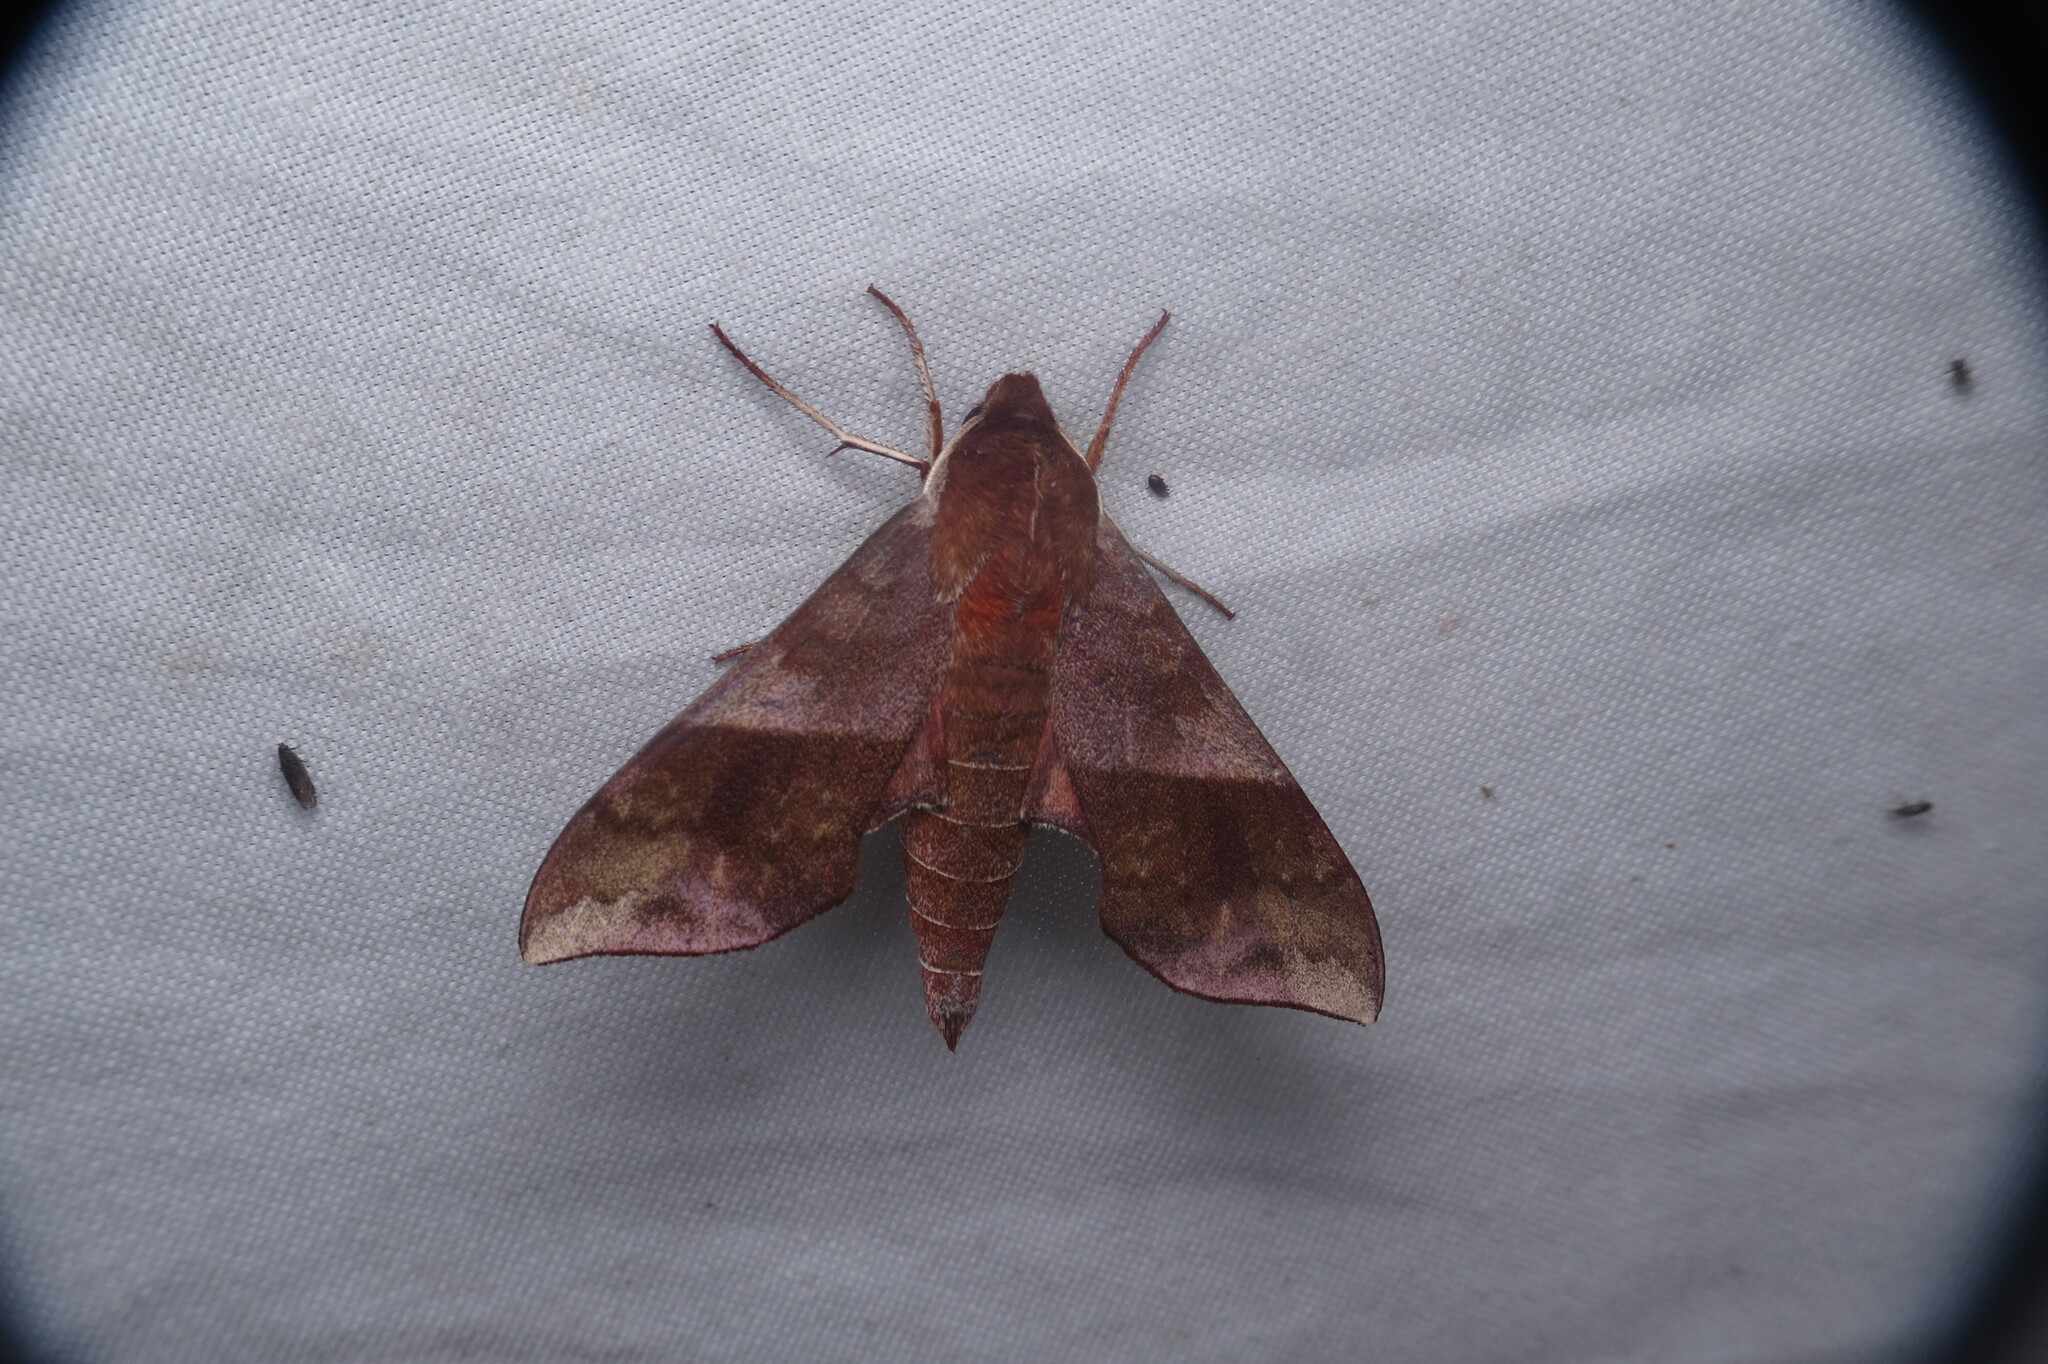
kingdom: Animalia
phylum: Arthropoda
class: Insecta
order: Lepidoptera
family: Sphingidae
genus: Darapsa
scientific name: Darapsa choerilus
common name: Azalea sphinx
